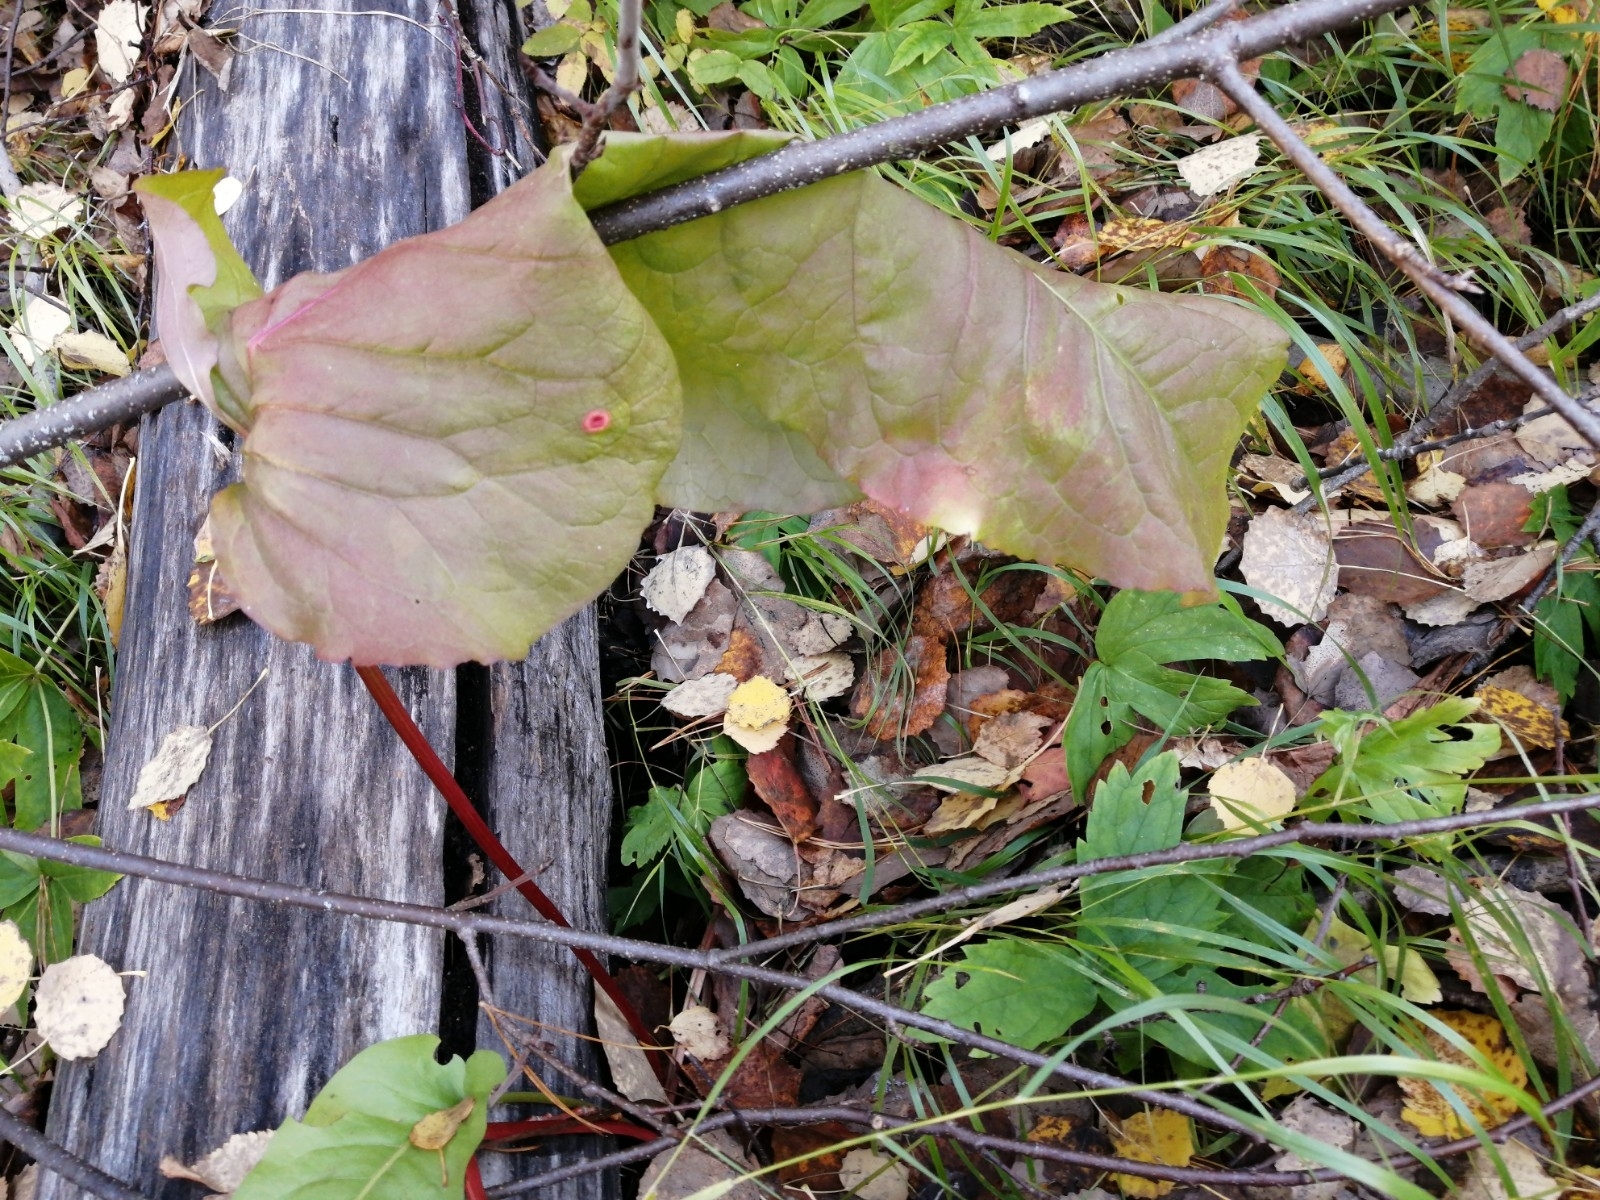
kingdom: Plantae
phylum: Tracheophyta
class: Magnoliopsida
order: Caryophyllales
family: Polygonaceae
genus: Rumex
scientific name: Rumex aquaticus
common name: Scottish dock
